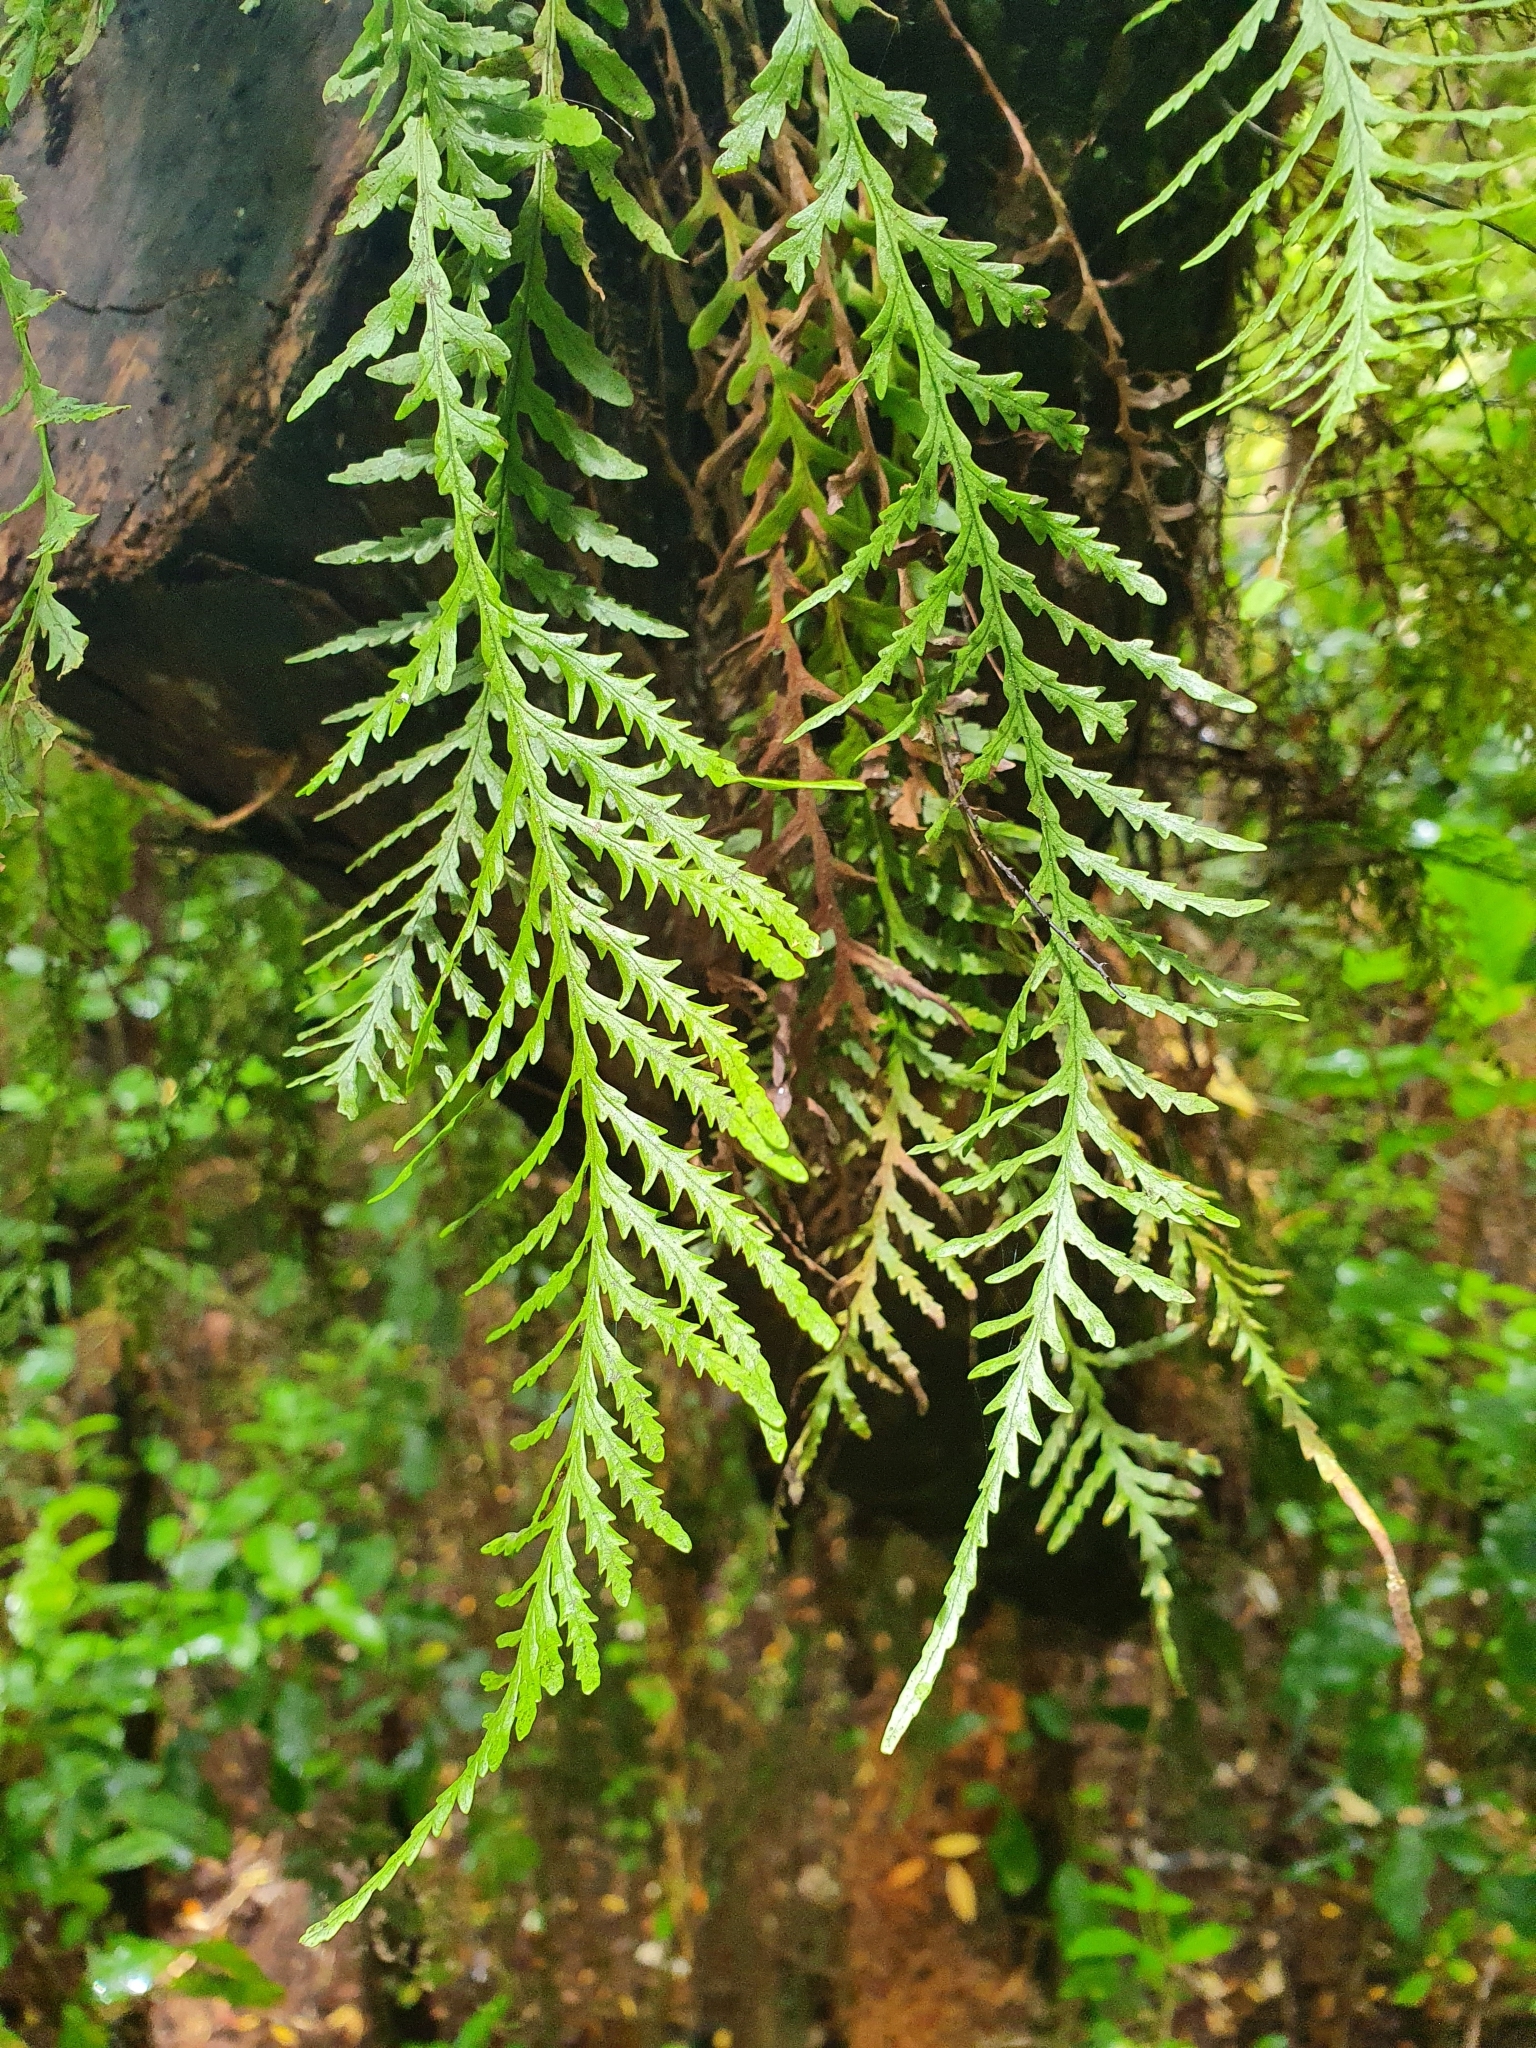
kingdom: Plantae
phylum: Tracheophyta
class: Polypodiopsida
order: Polypodiales
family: Polypodiaceae
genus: Notogrammitis
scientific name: Notogrammitis heterophylla
